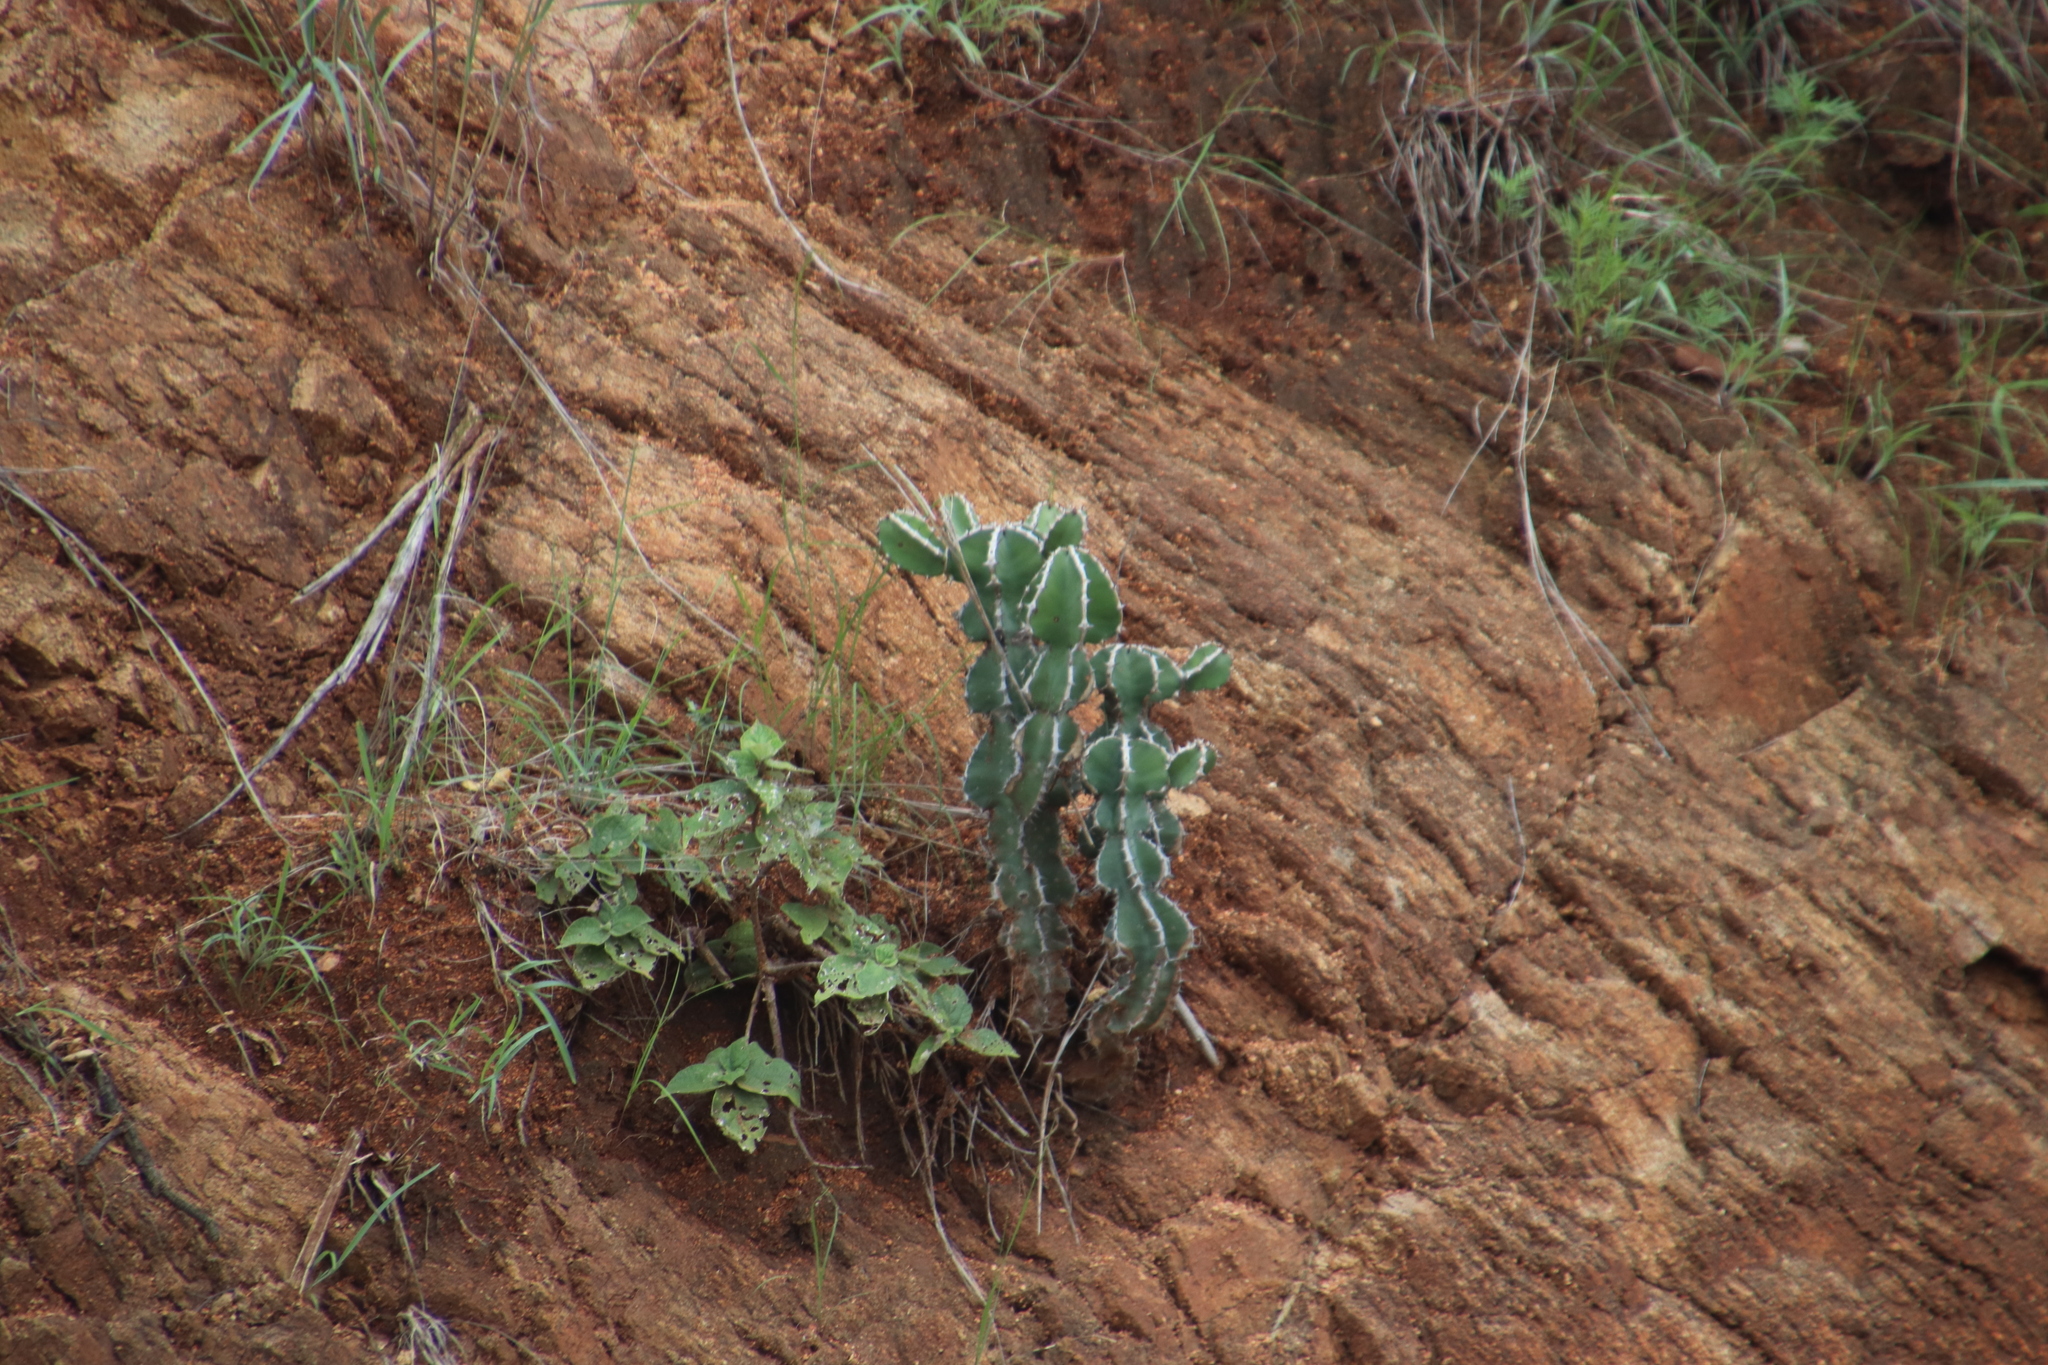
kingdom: Plantae
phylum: Tracheophyta
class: Magnoliopsida
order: Malpighiales
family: Euphorbiaceae
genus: Euphorbia
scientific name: Euphorbia cooperi
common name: Candelabra tree
